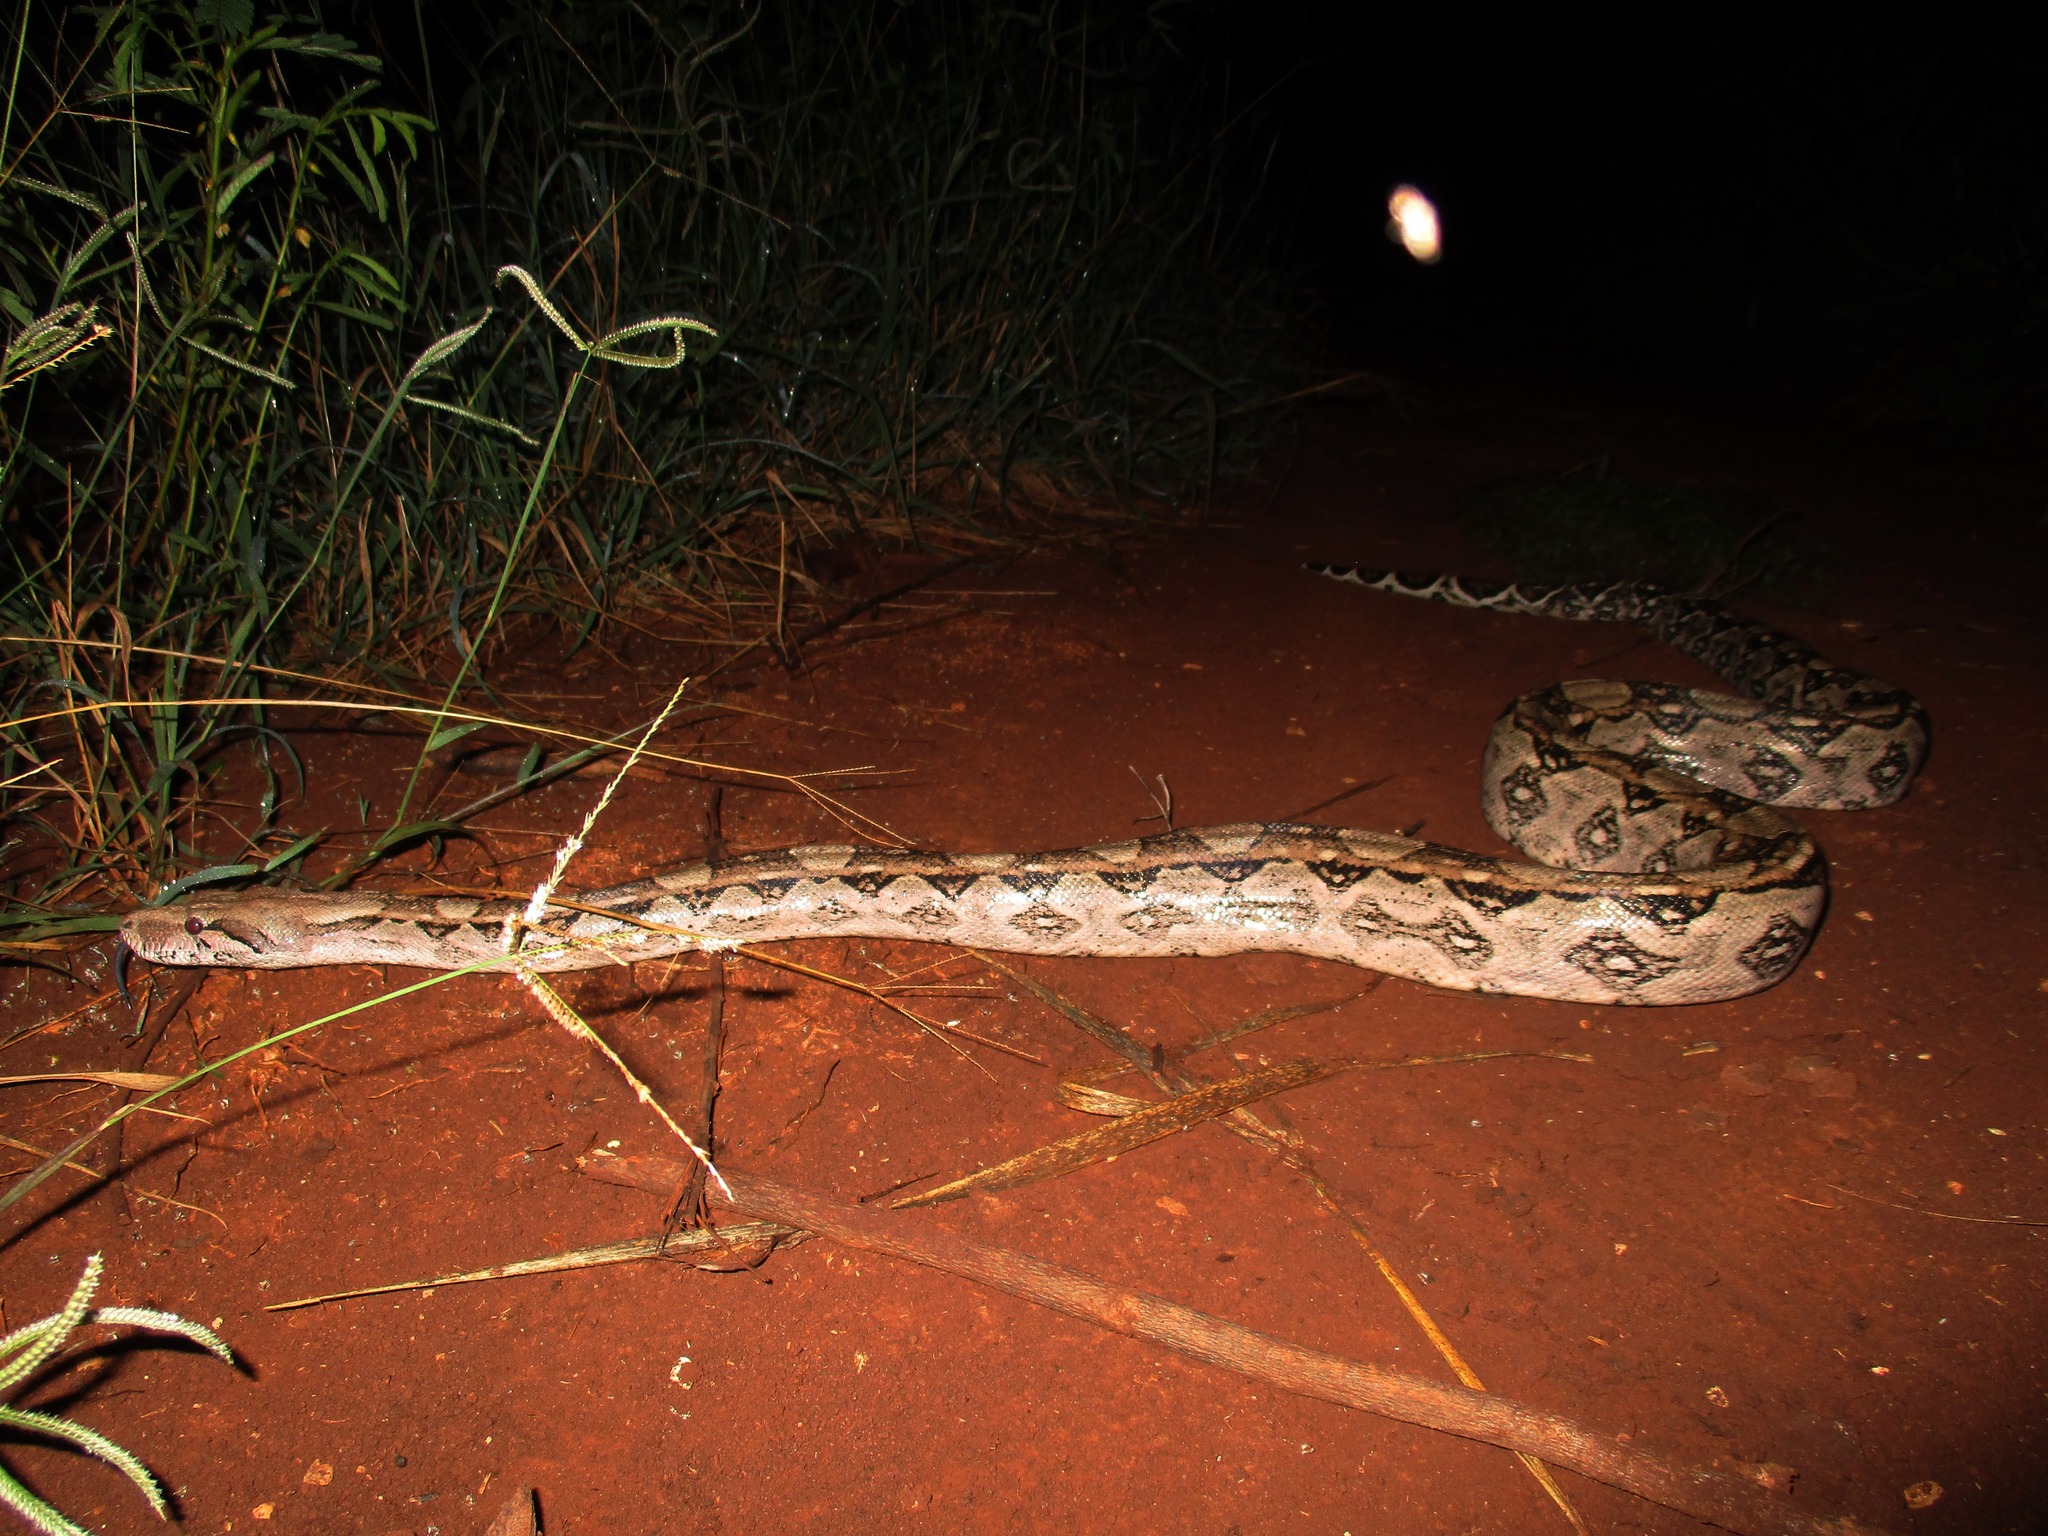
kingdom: Animalia
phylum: Chordata
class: Squamata
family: Boidae
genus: Boa
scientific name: Boa imperator
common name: Central american boa
